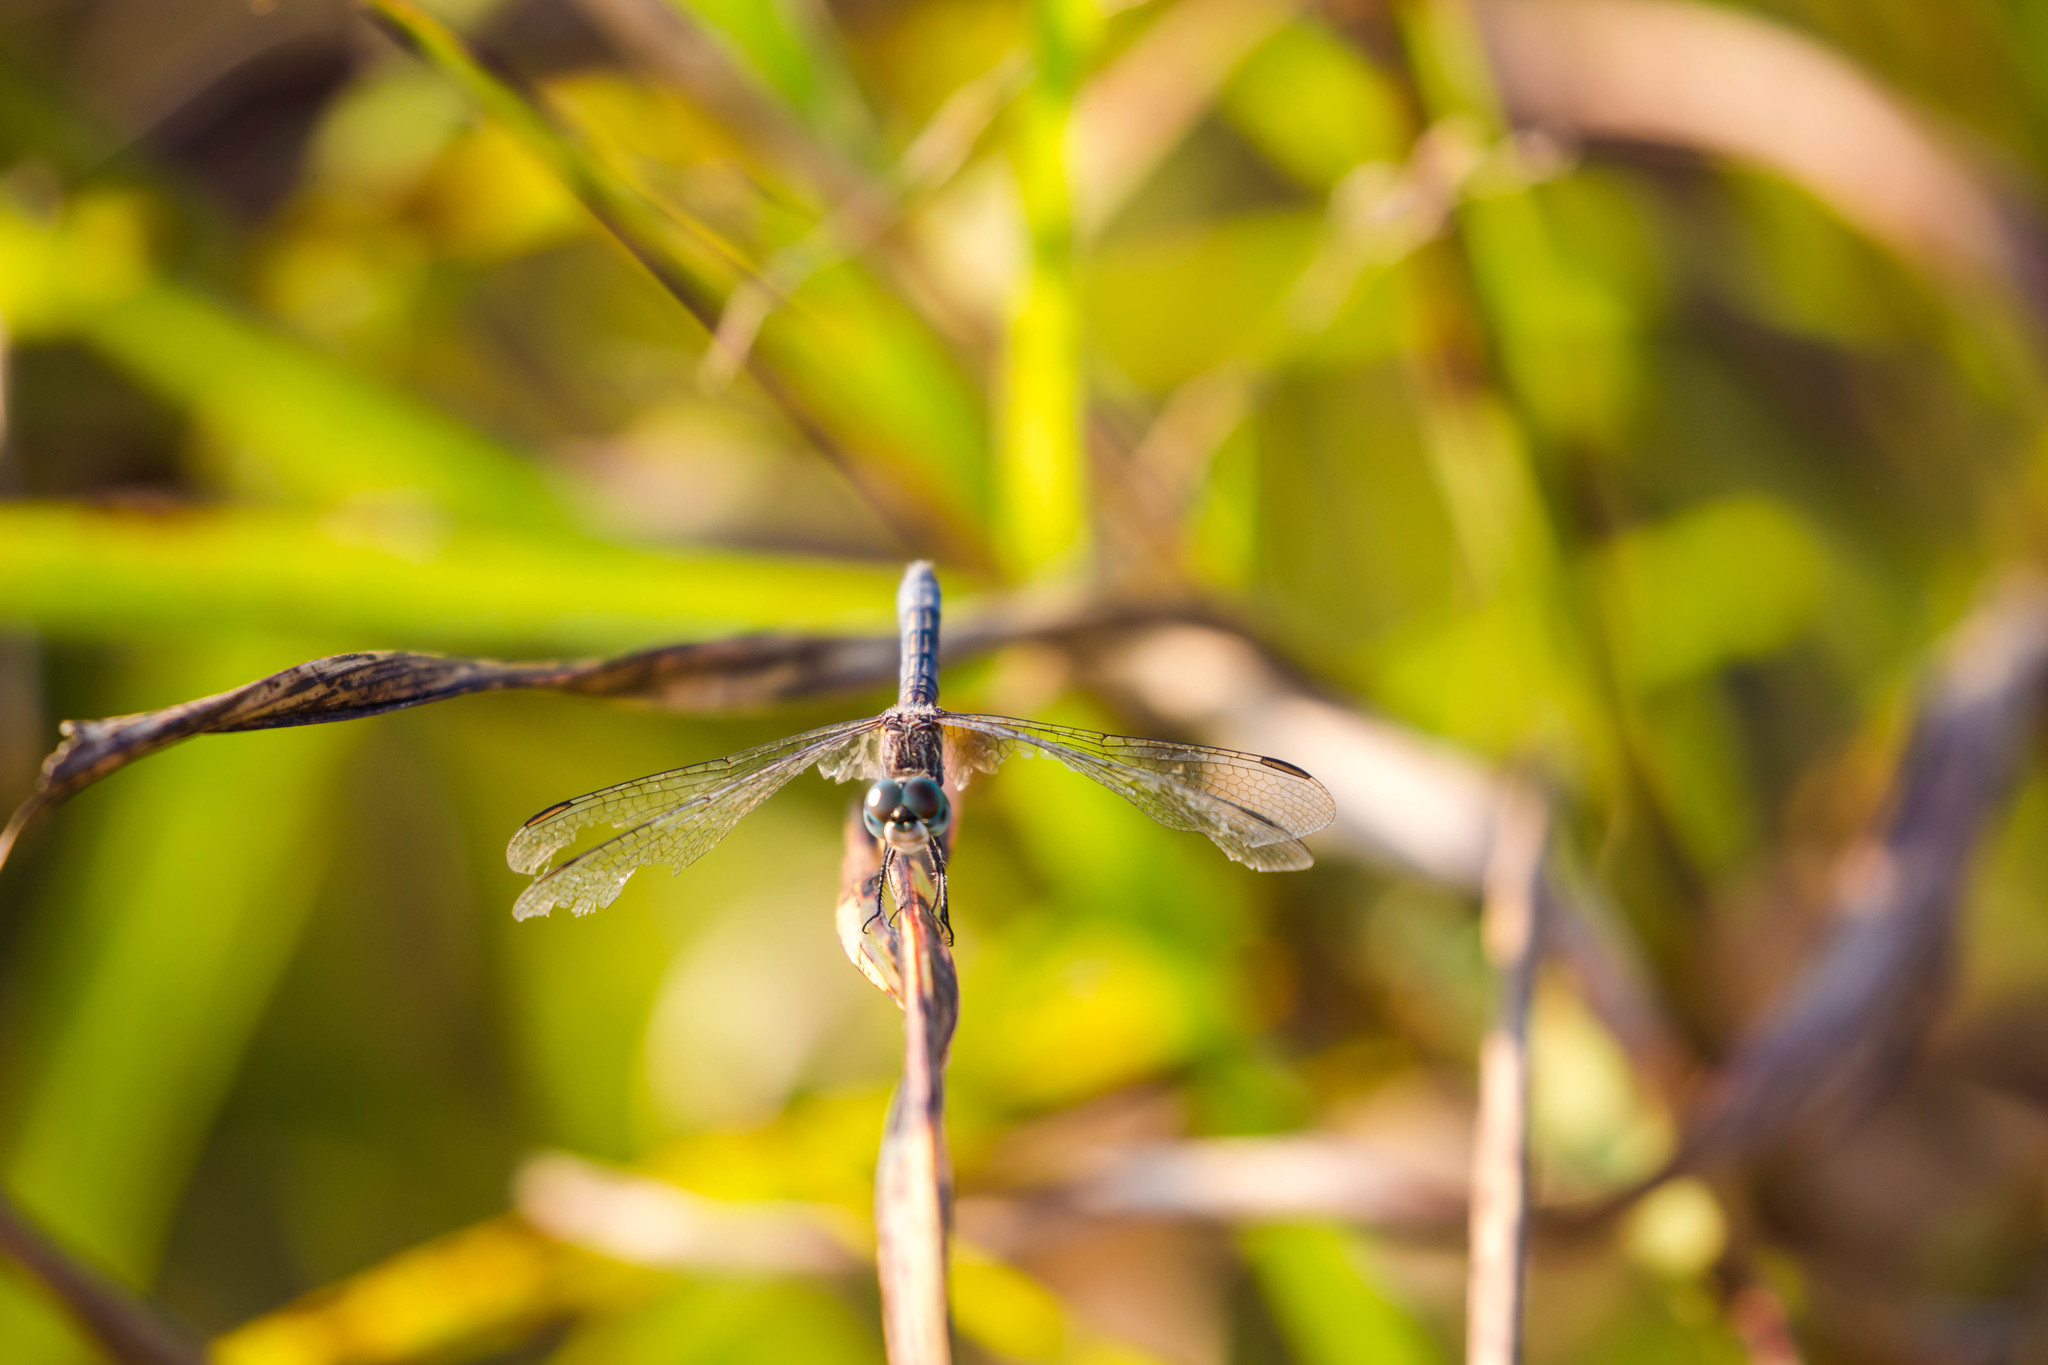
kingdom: Animalia
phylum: Arthropoda
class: Insecta
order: Odonata
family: Libellulidae
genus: Pachydiplax
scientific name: Pachydiplax longipennis
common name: Blue dasher
